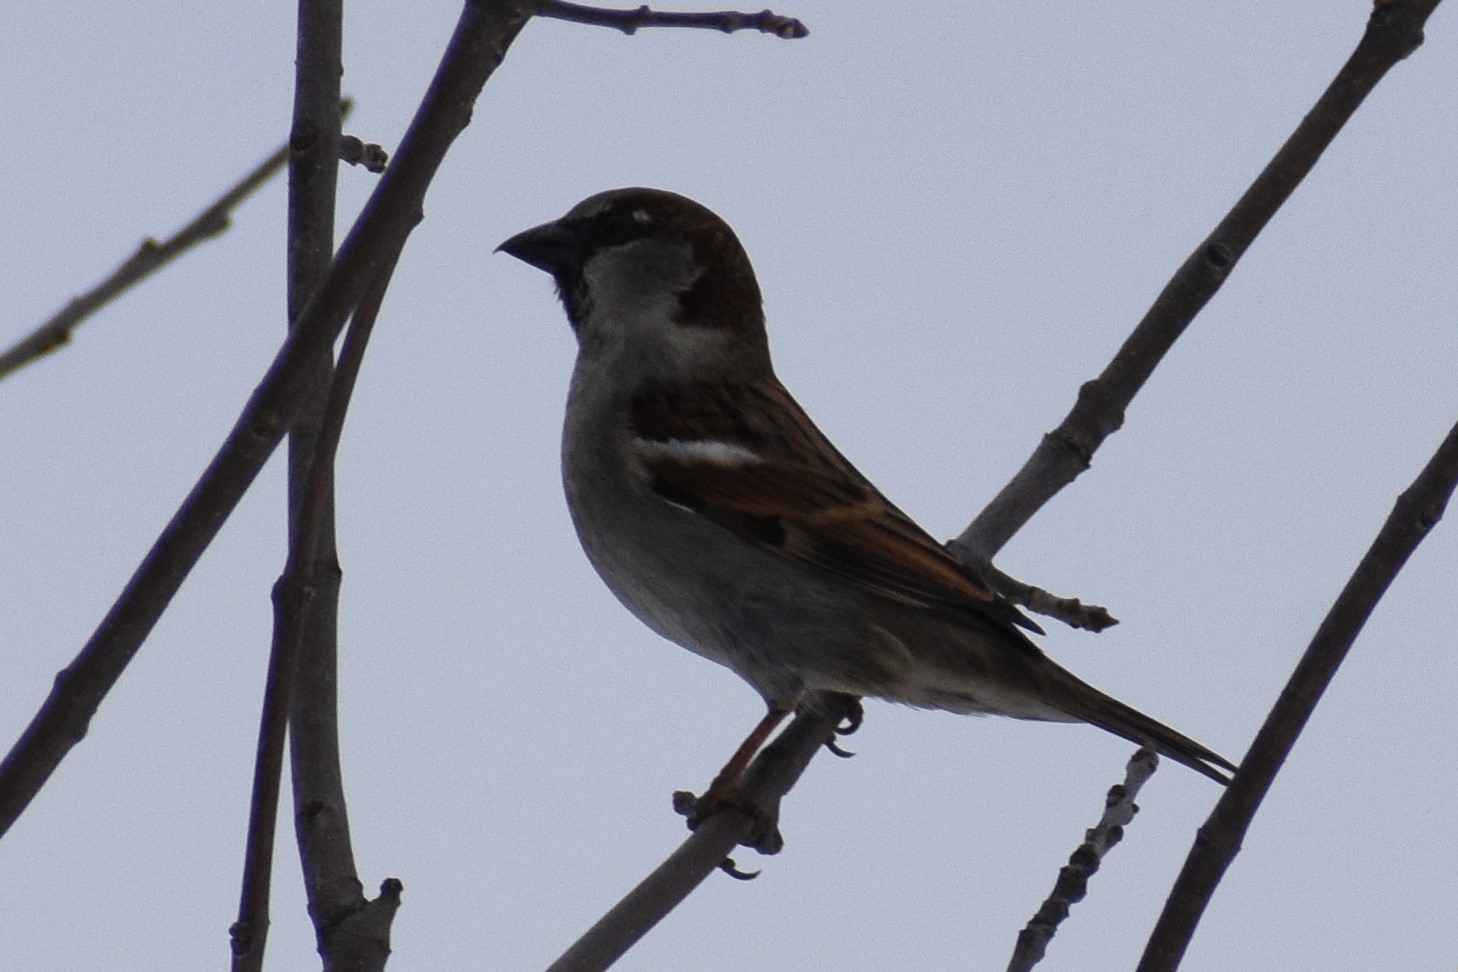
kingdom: Animalia
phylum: Chordata
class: Aves
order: Passeriformes
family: Passeridae
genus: Passer
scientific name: Passer domesticus
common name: House sparrow
